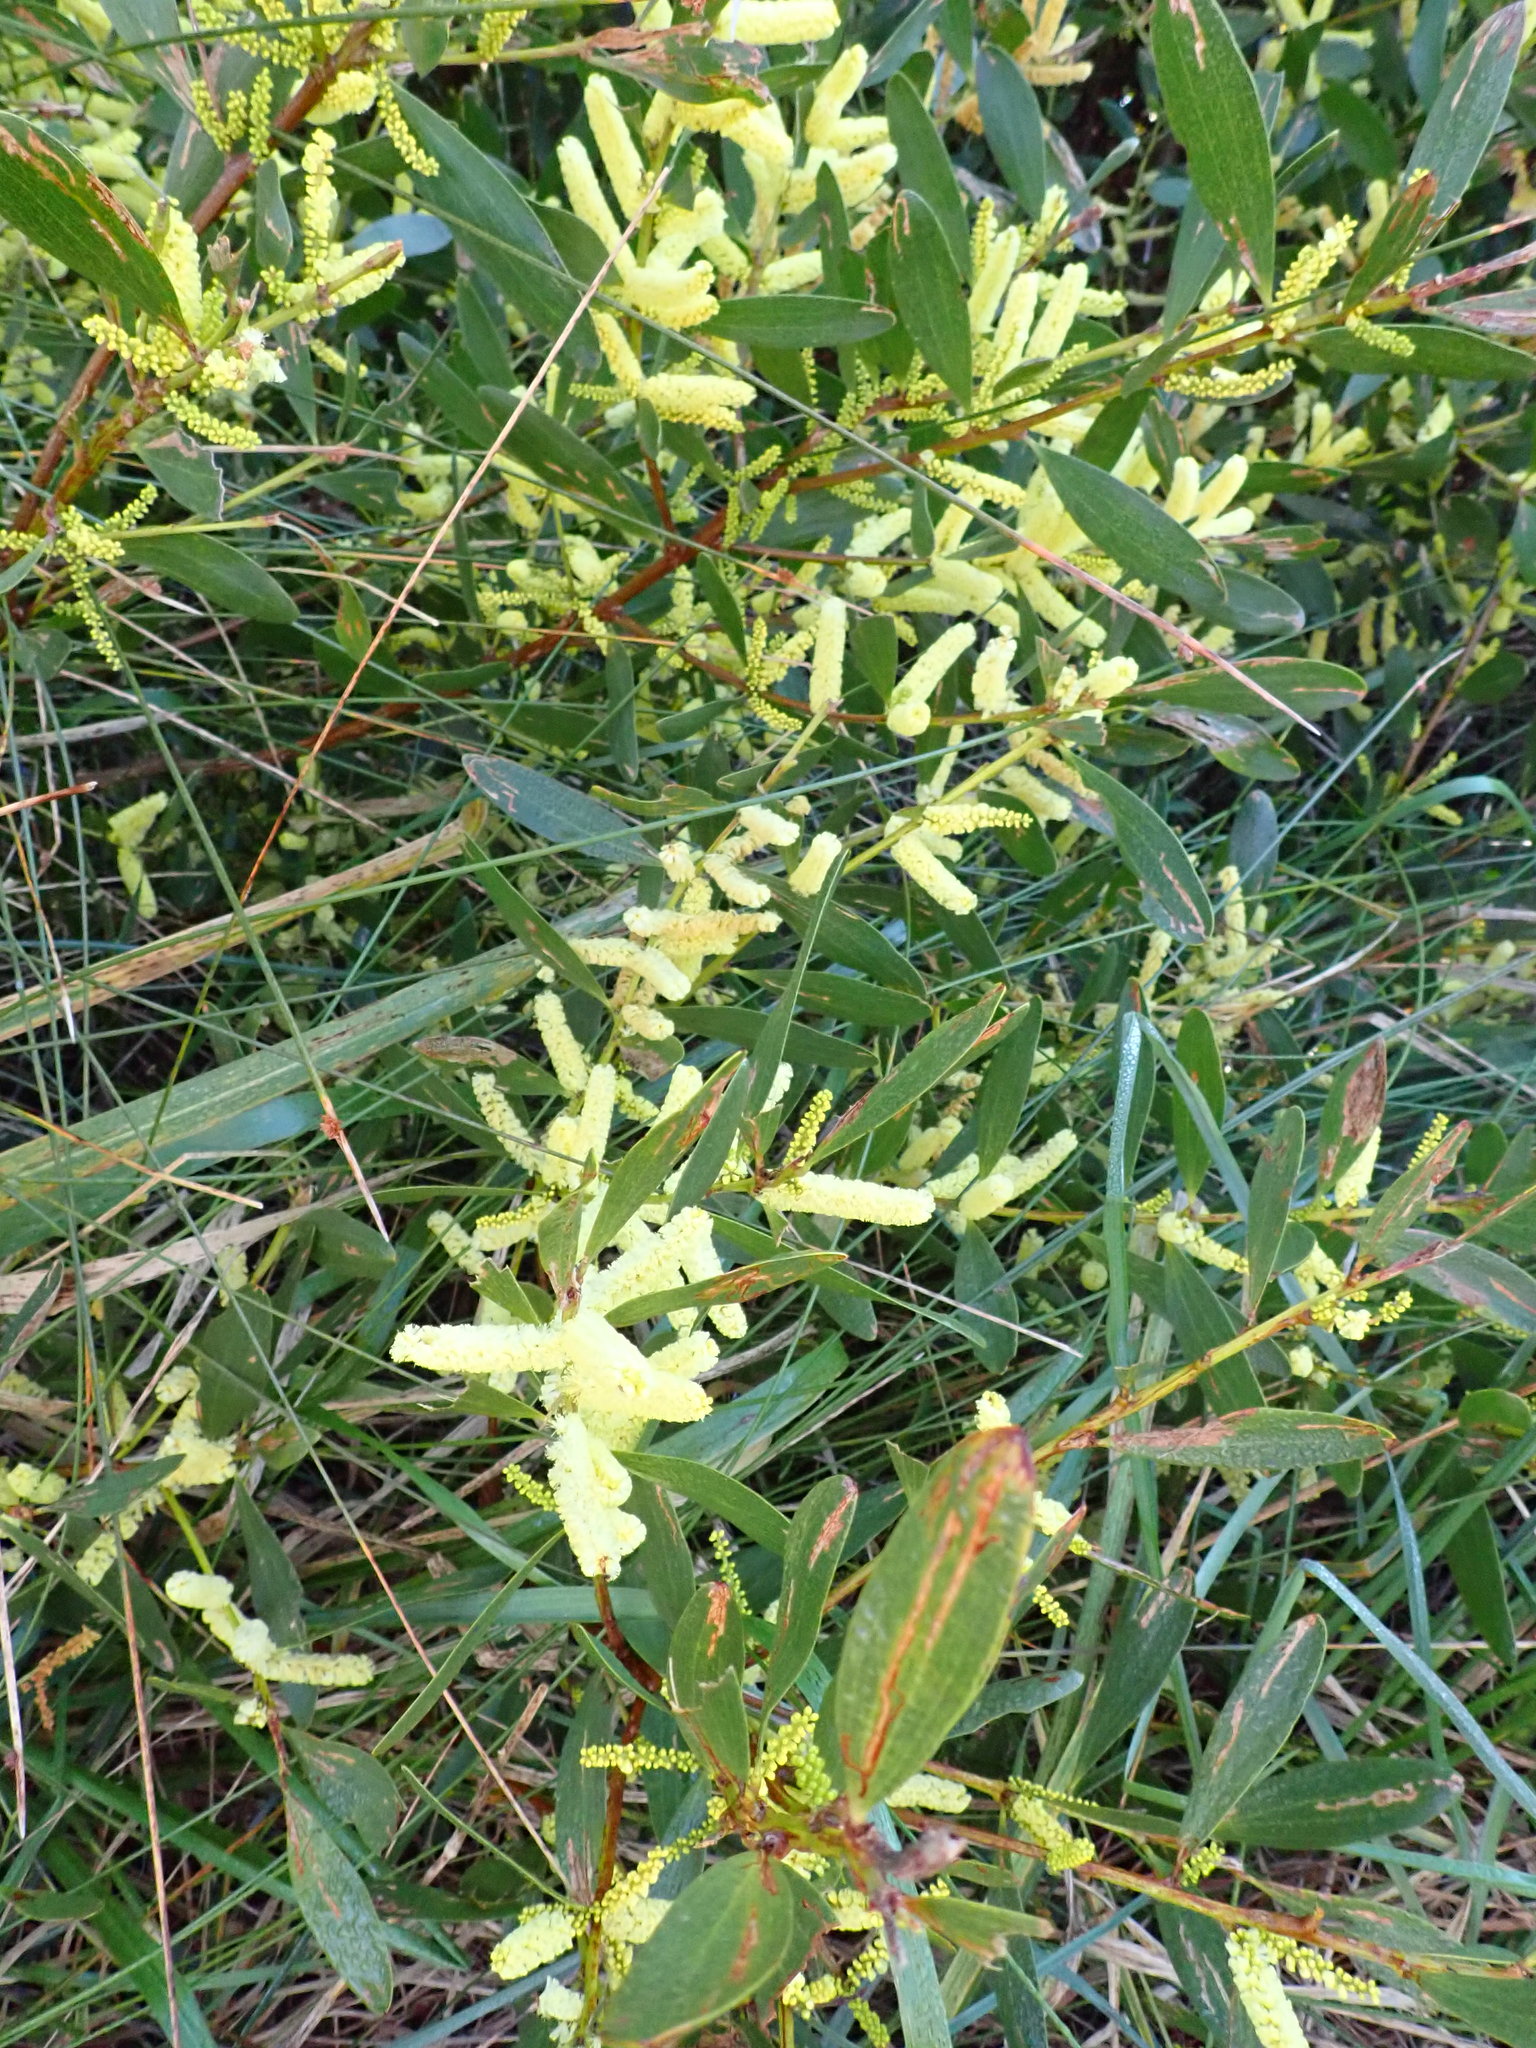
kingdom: Plantae
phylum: Tracheophyta
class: Magnoliopsida
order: Fabales
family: Fabaceae
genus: Acacia
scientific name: Acacia longifolia
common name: Sydney golden wattle
